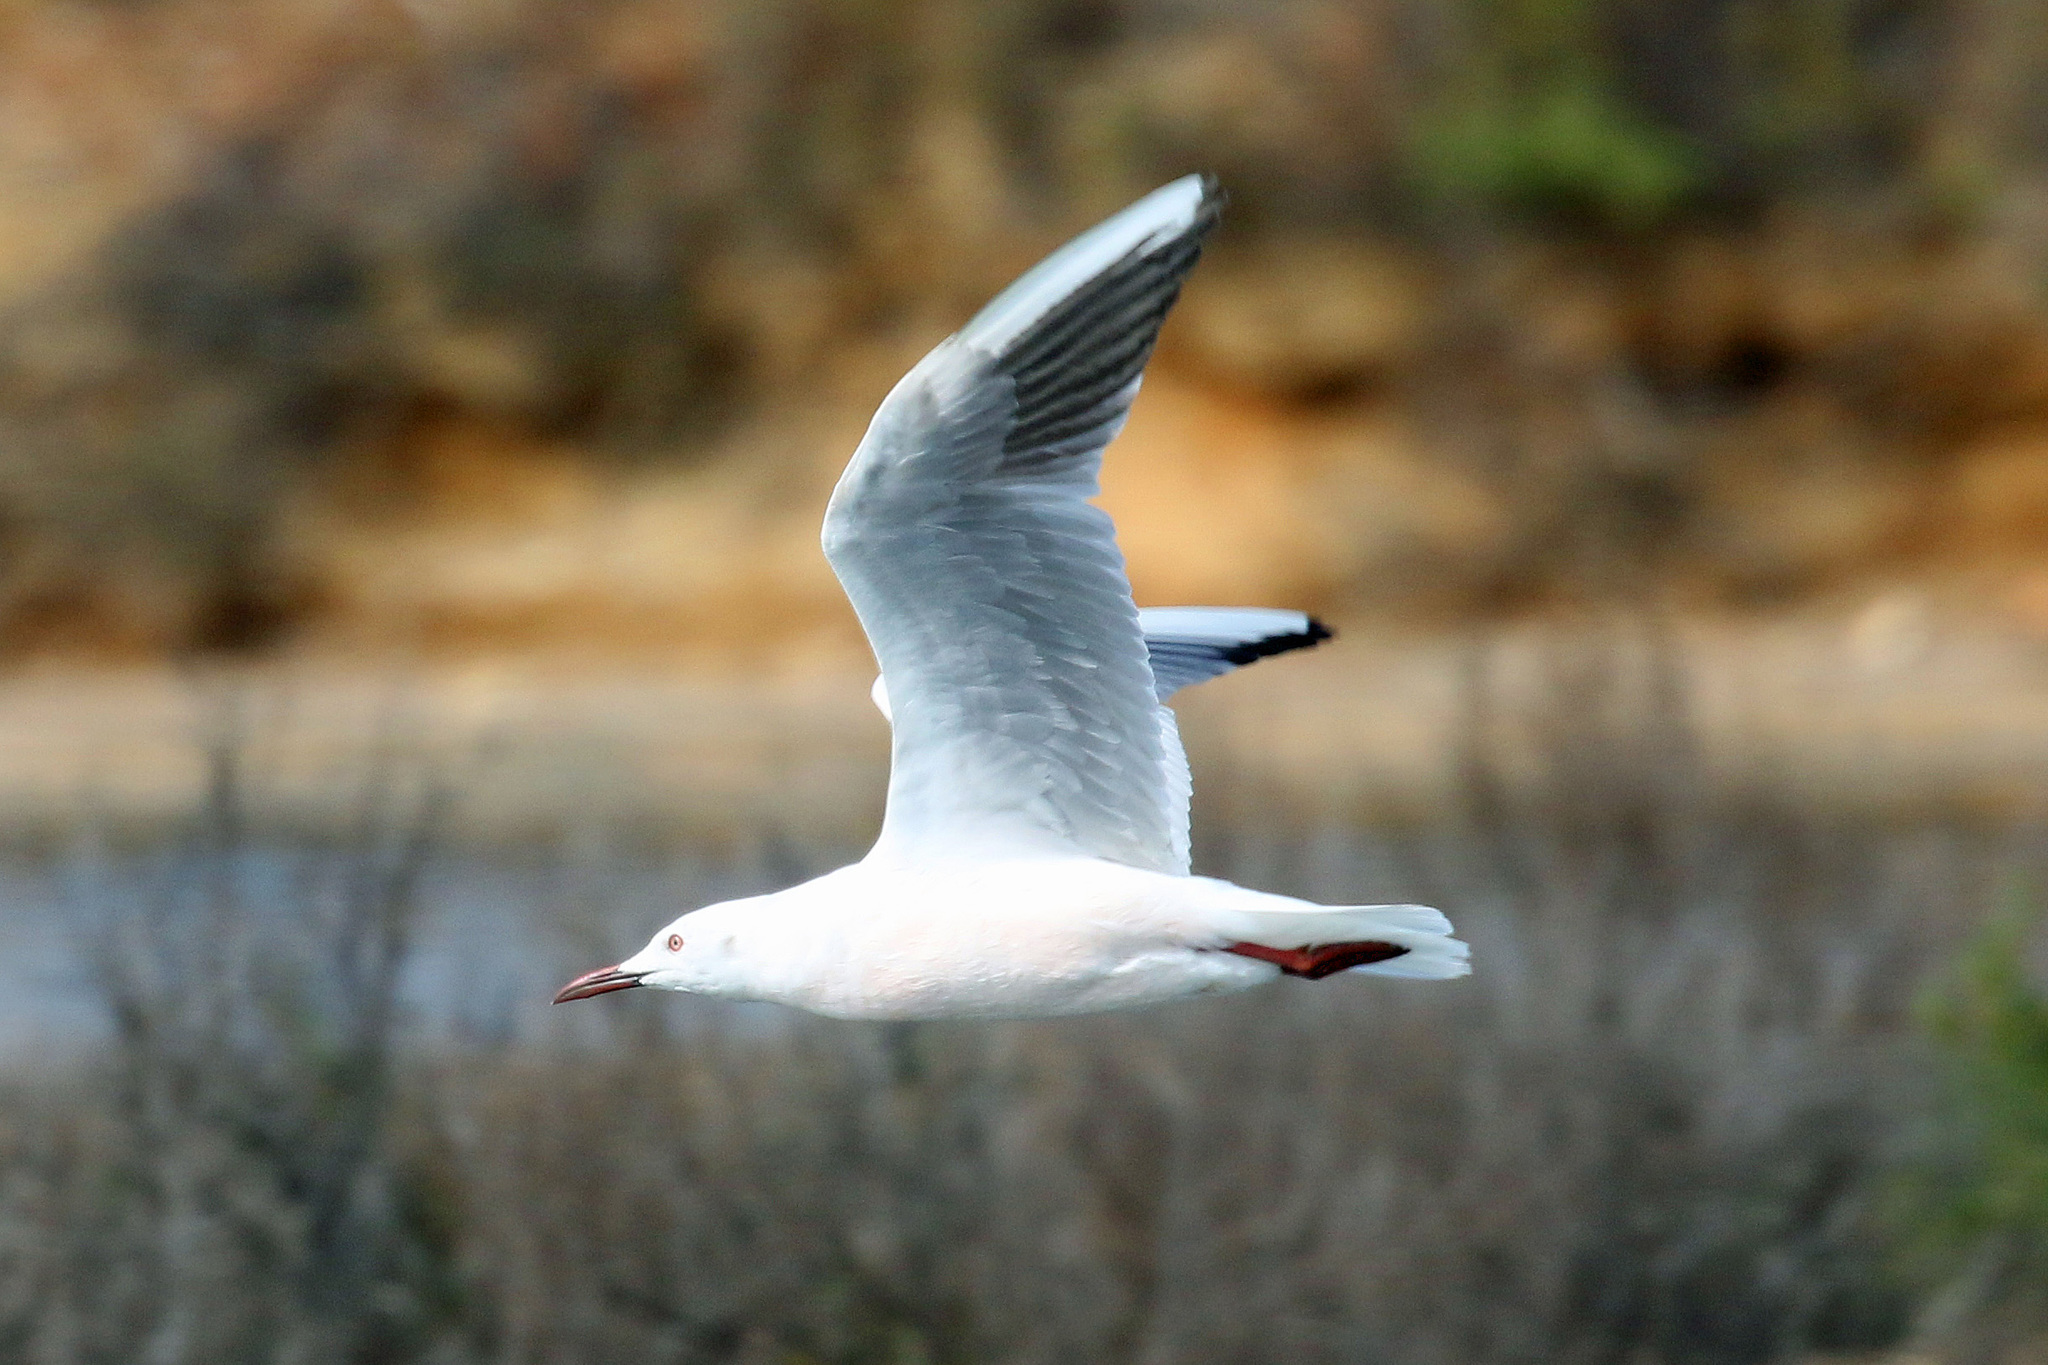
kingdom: Animalia
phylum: Chordata
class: Aves
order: Charadriiformes
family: Laridae
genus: Chroicocephalus
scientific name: Chroicocephalus genei
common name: Slender-billed gull
